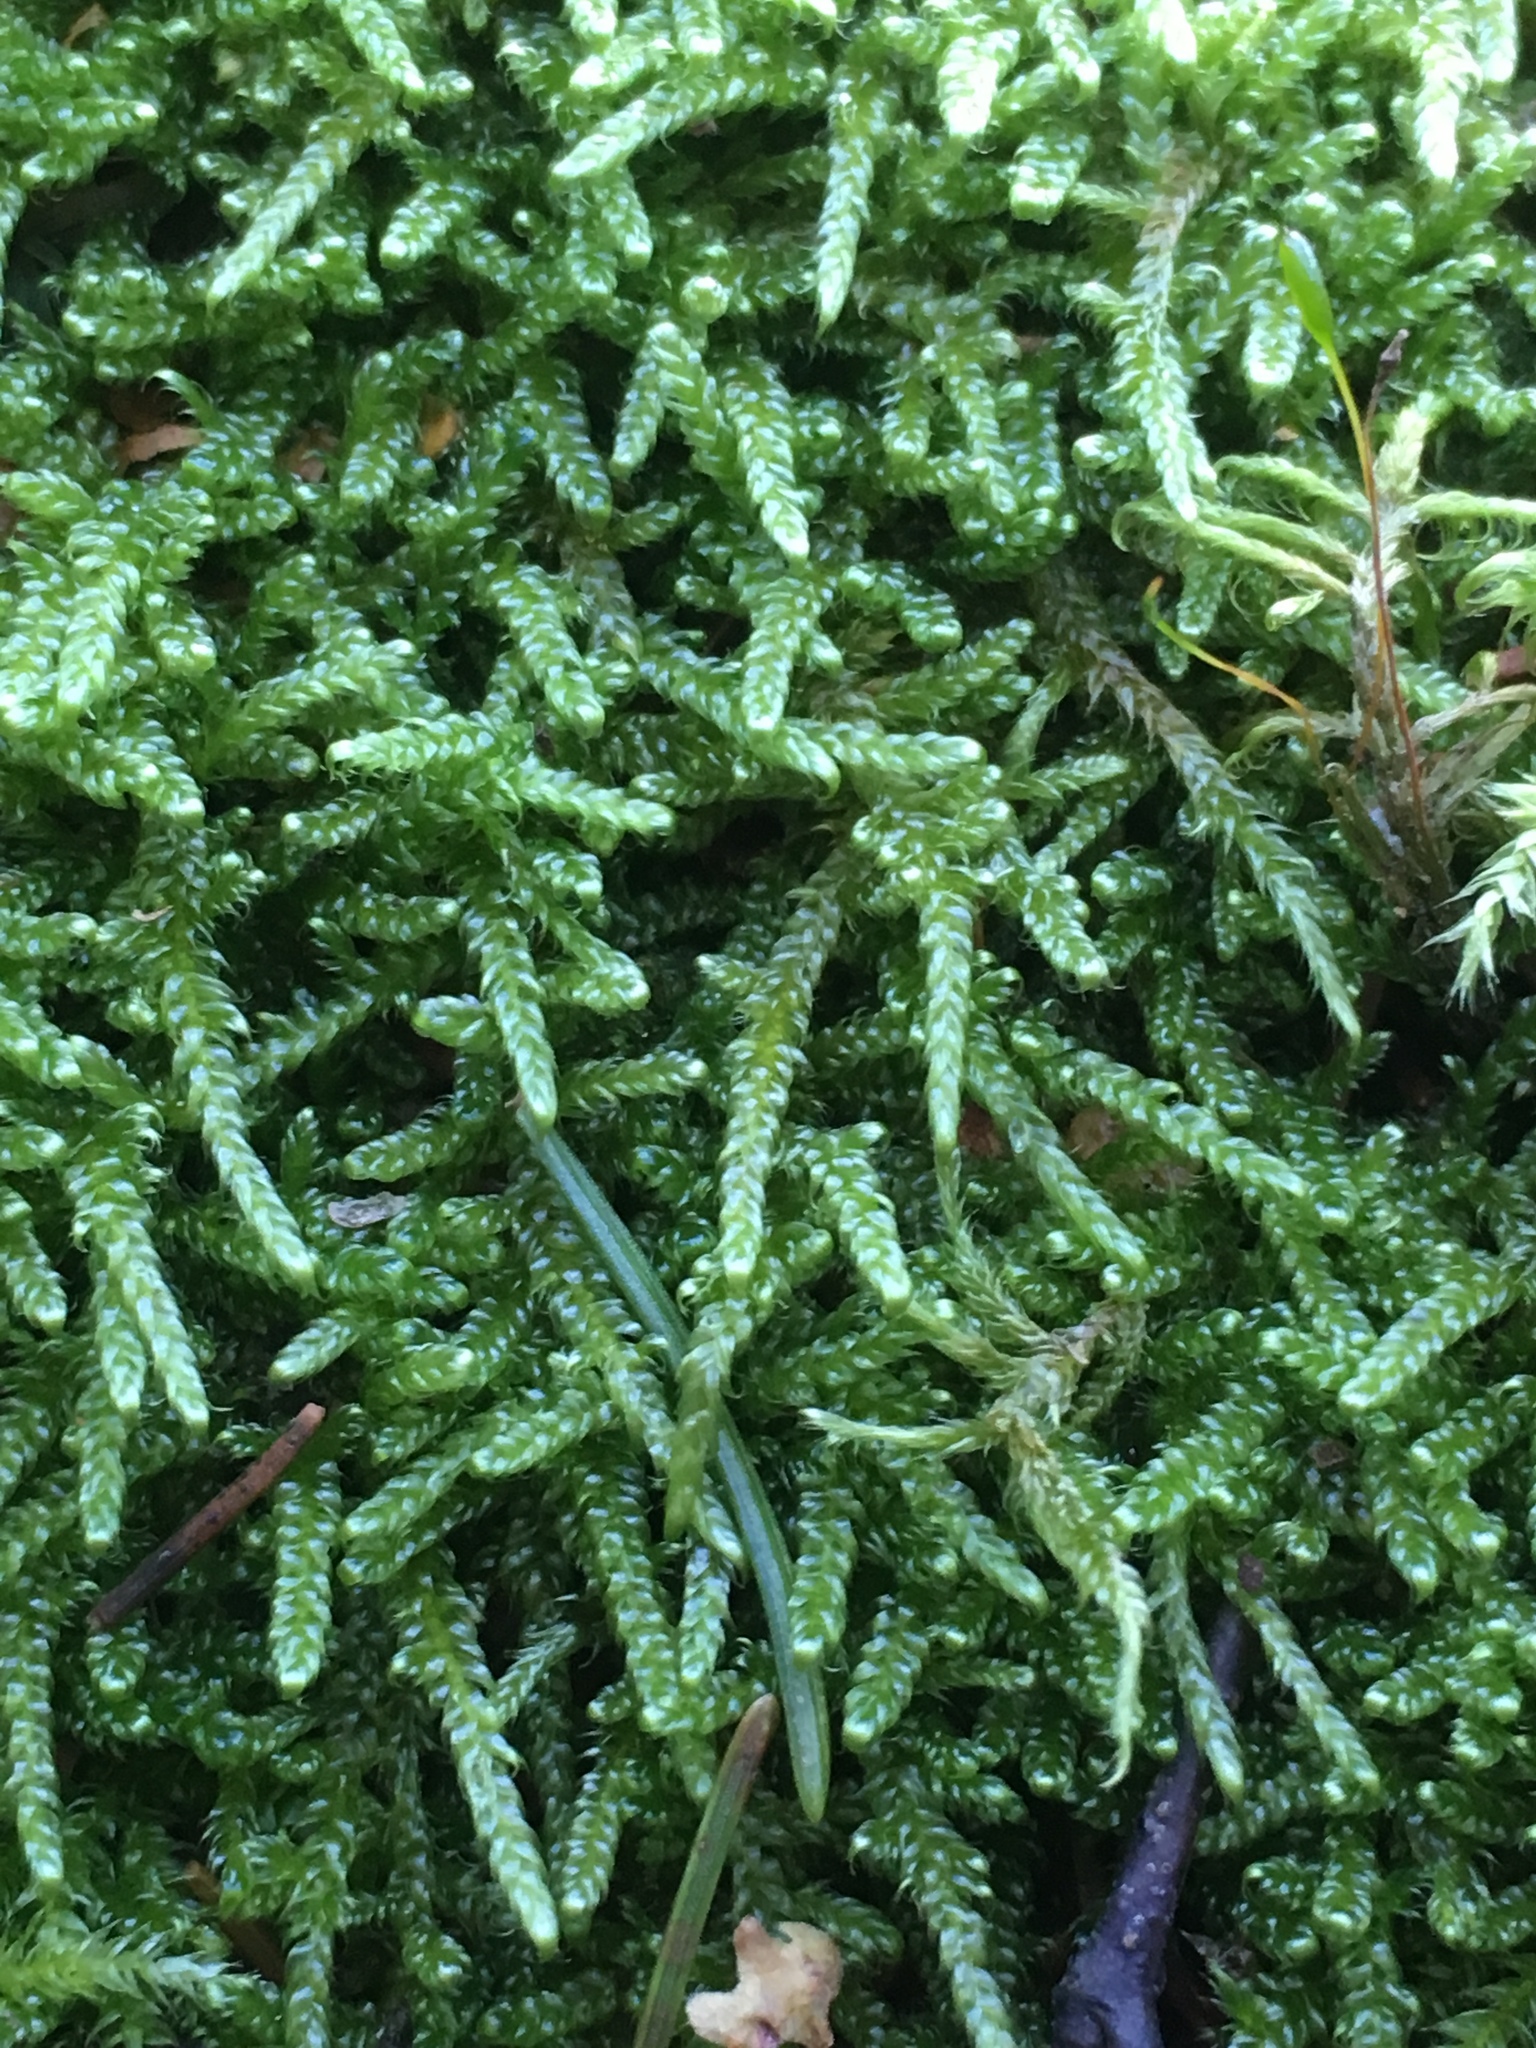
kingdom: Plantae
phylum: Bryophyta
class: Bryopsida
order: Hypnales
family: Hypnaceae
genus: Hypnum
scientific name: Hypnum jutlandicum
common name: Heath plait-moss
